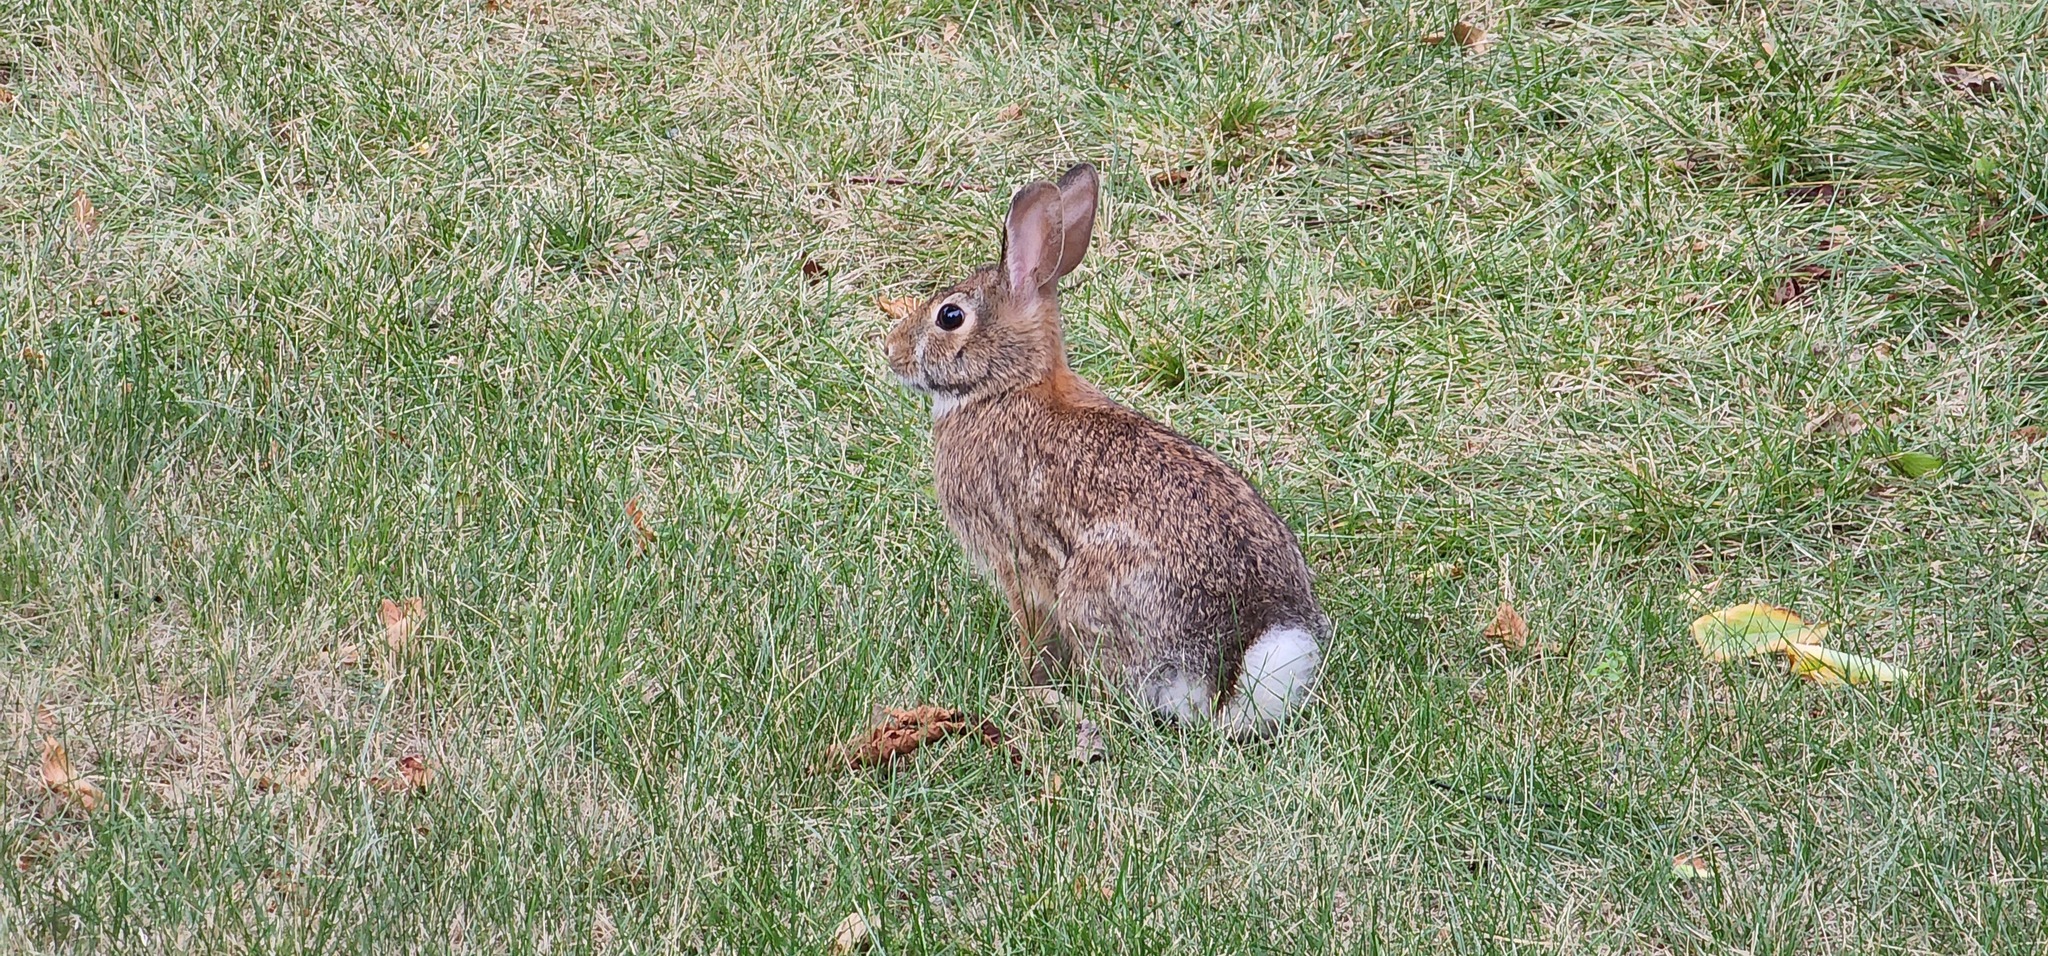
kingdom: Animalia
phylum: Chordata
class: Mammalia
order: Lagomorpha
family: Leporidae
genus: Sylvilagus
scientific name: Sylvilagus floridanus
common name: Eastern cottontail
